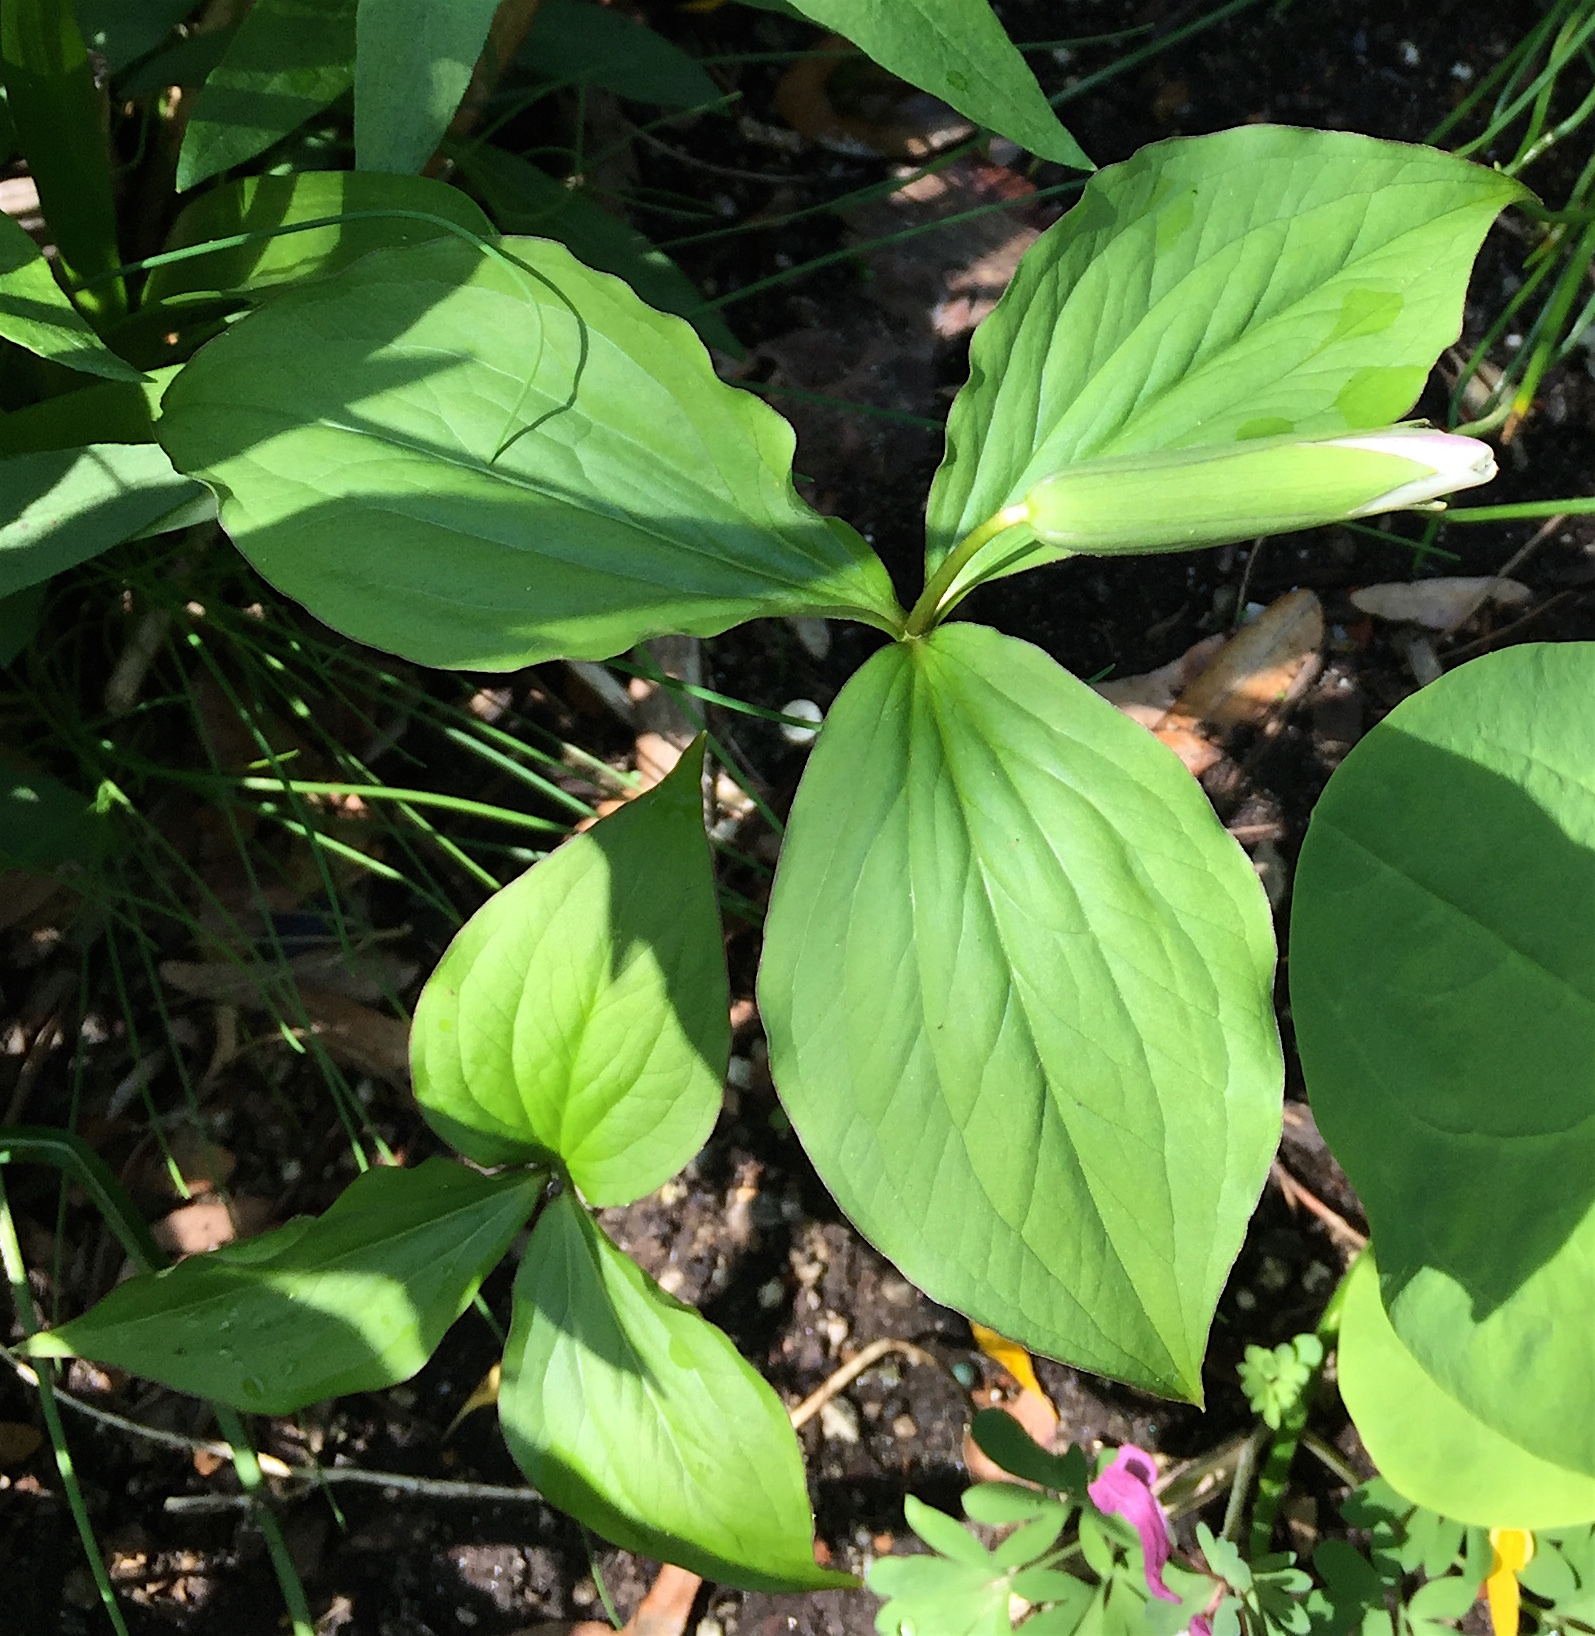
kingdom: Plantae
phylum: Tracheophyta
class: Liliopsida
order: Liliales
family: Melanthiaceae
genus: Trillium
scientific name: Trillium grandiflorum
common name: Great white trillium
